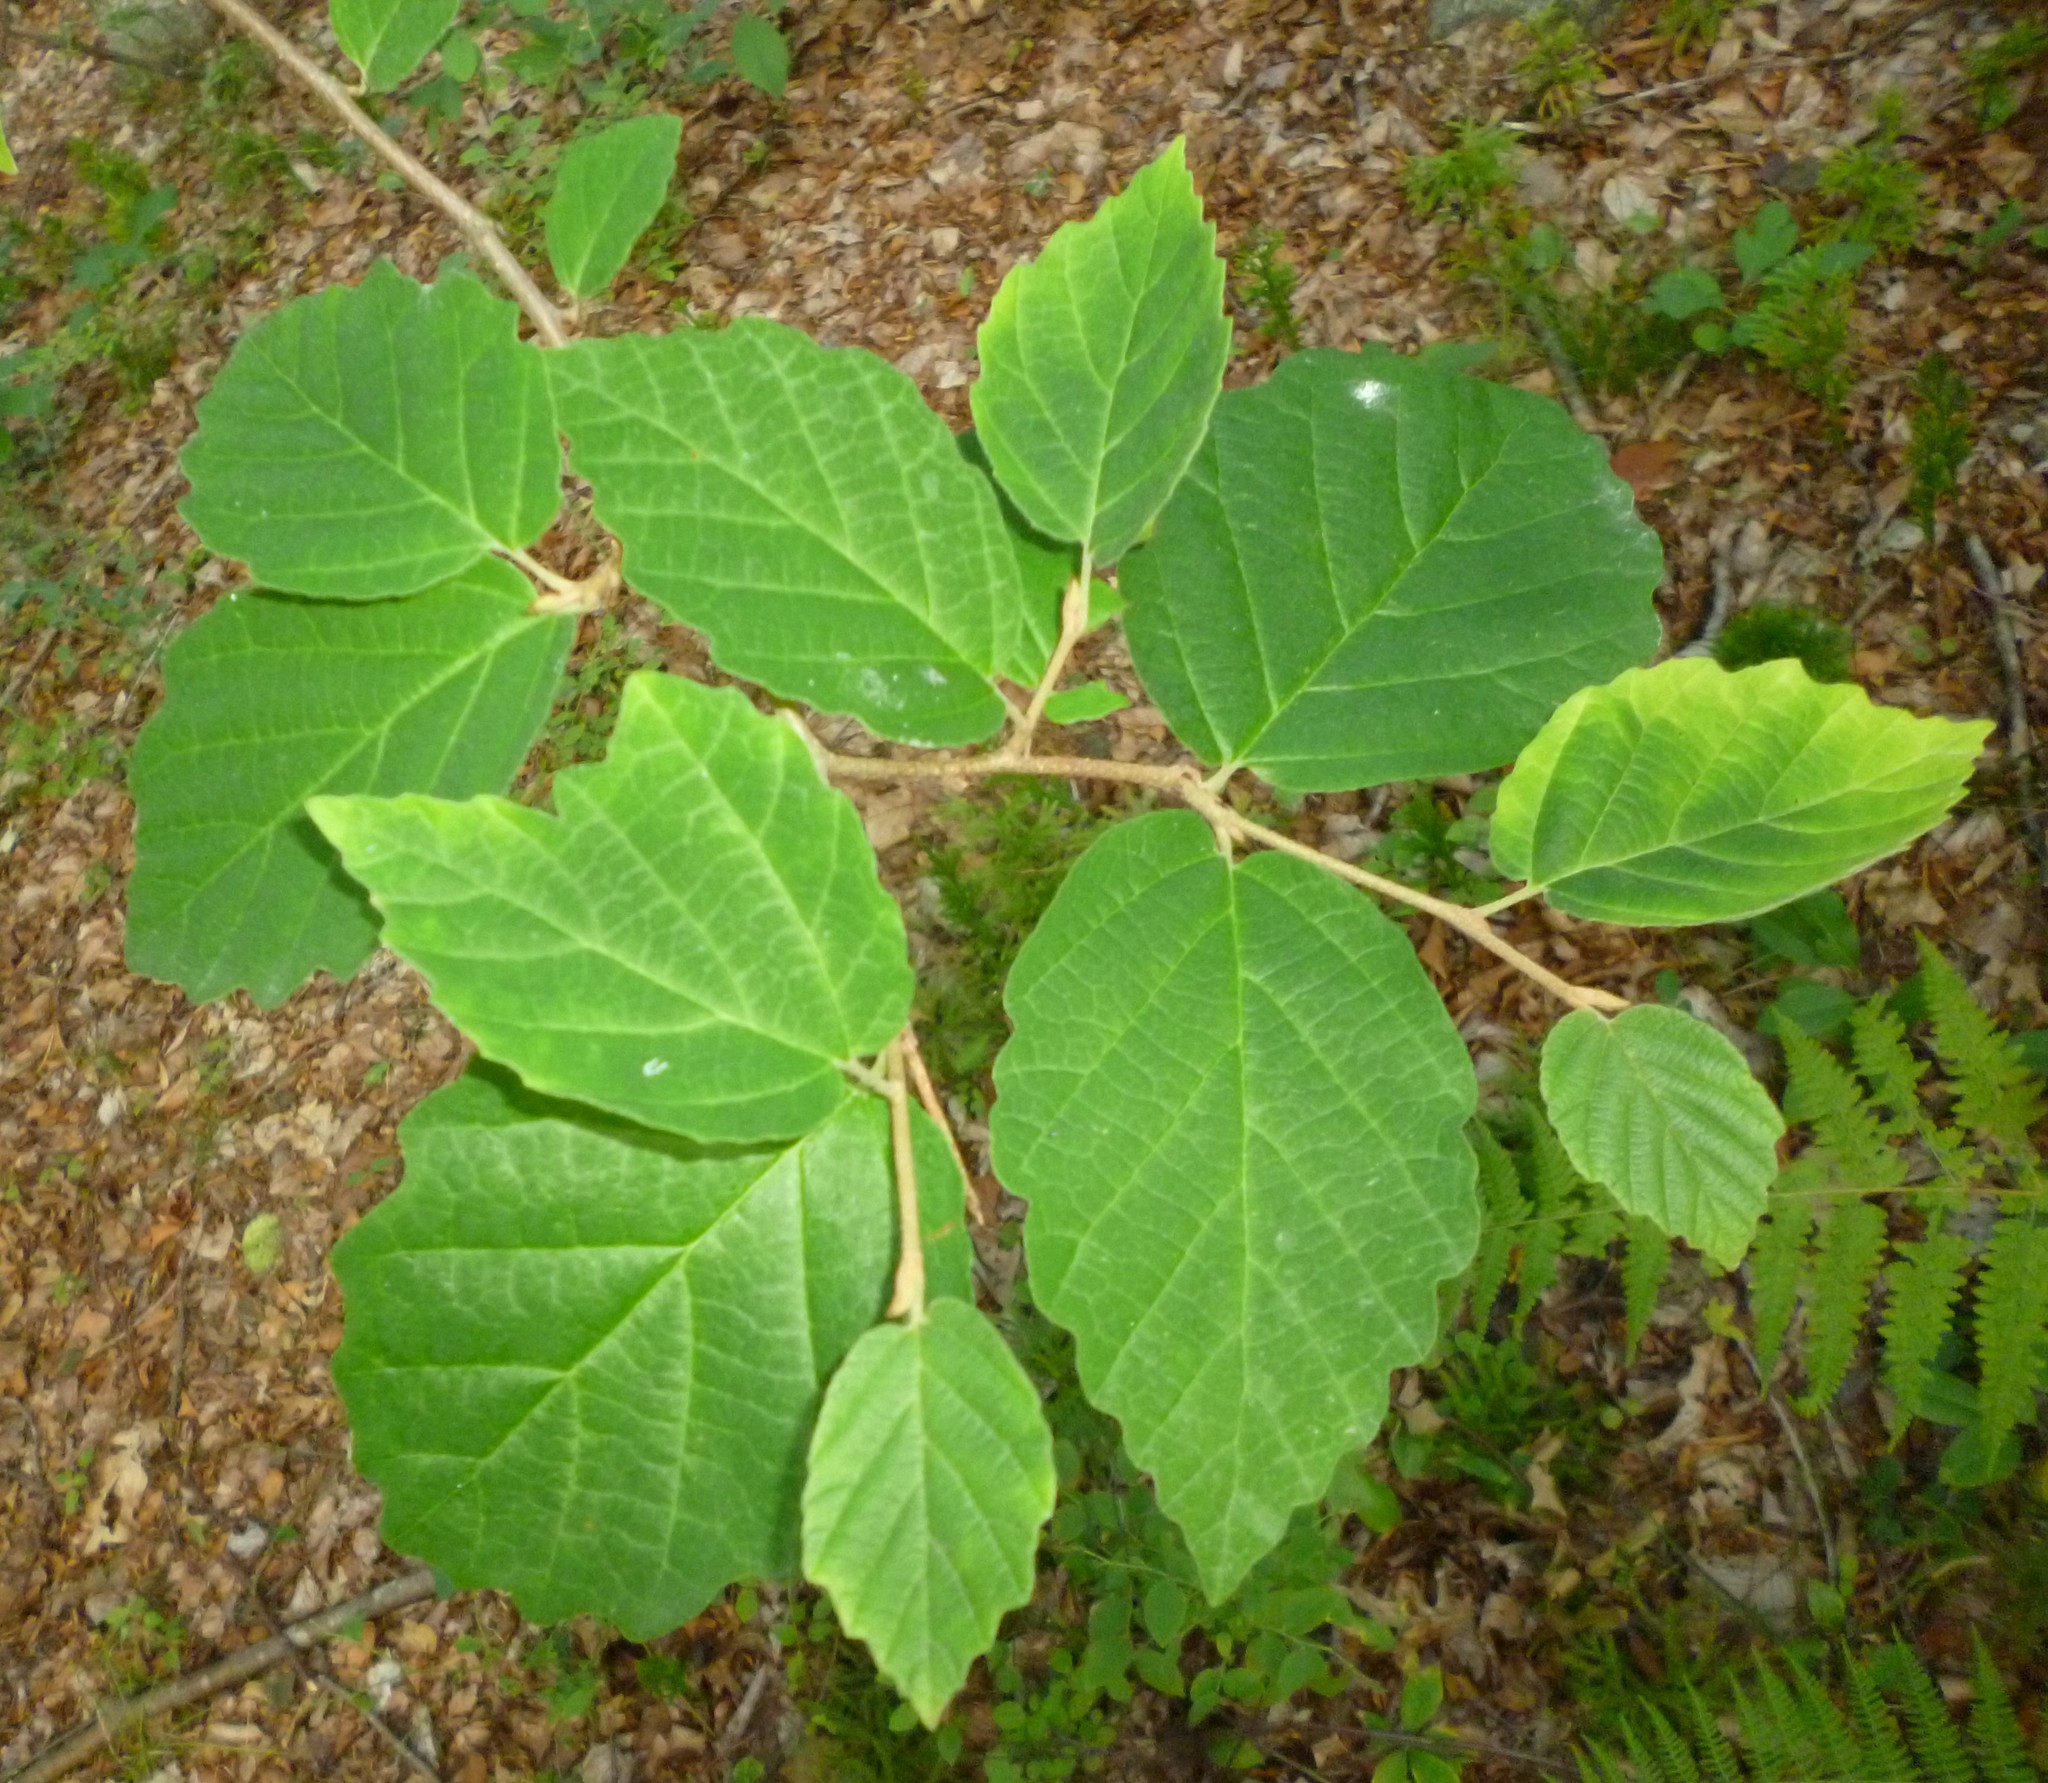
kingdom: Plantae
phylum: Tracheophyta
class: Magnoliopsida
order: Saxifragales
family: Hamamelidaceae
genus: Hamamelis
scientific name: Hamamelis virginiana
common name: Witch-hazel
